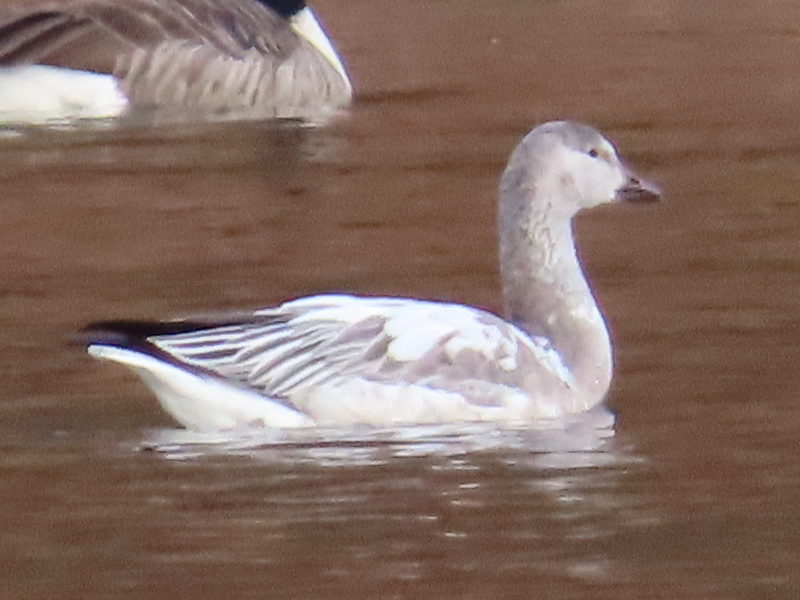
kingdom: Animalia
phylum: Chordata
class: Aves
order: Anseriformes
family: Anatidae
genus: Anser
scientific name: Anser caerulescens
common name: Snow goose
